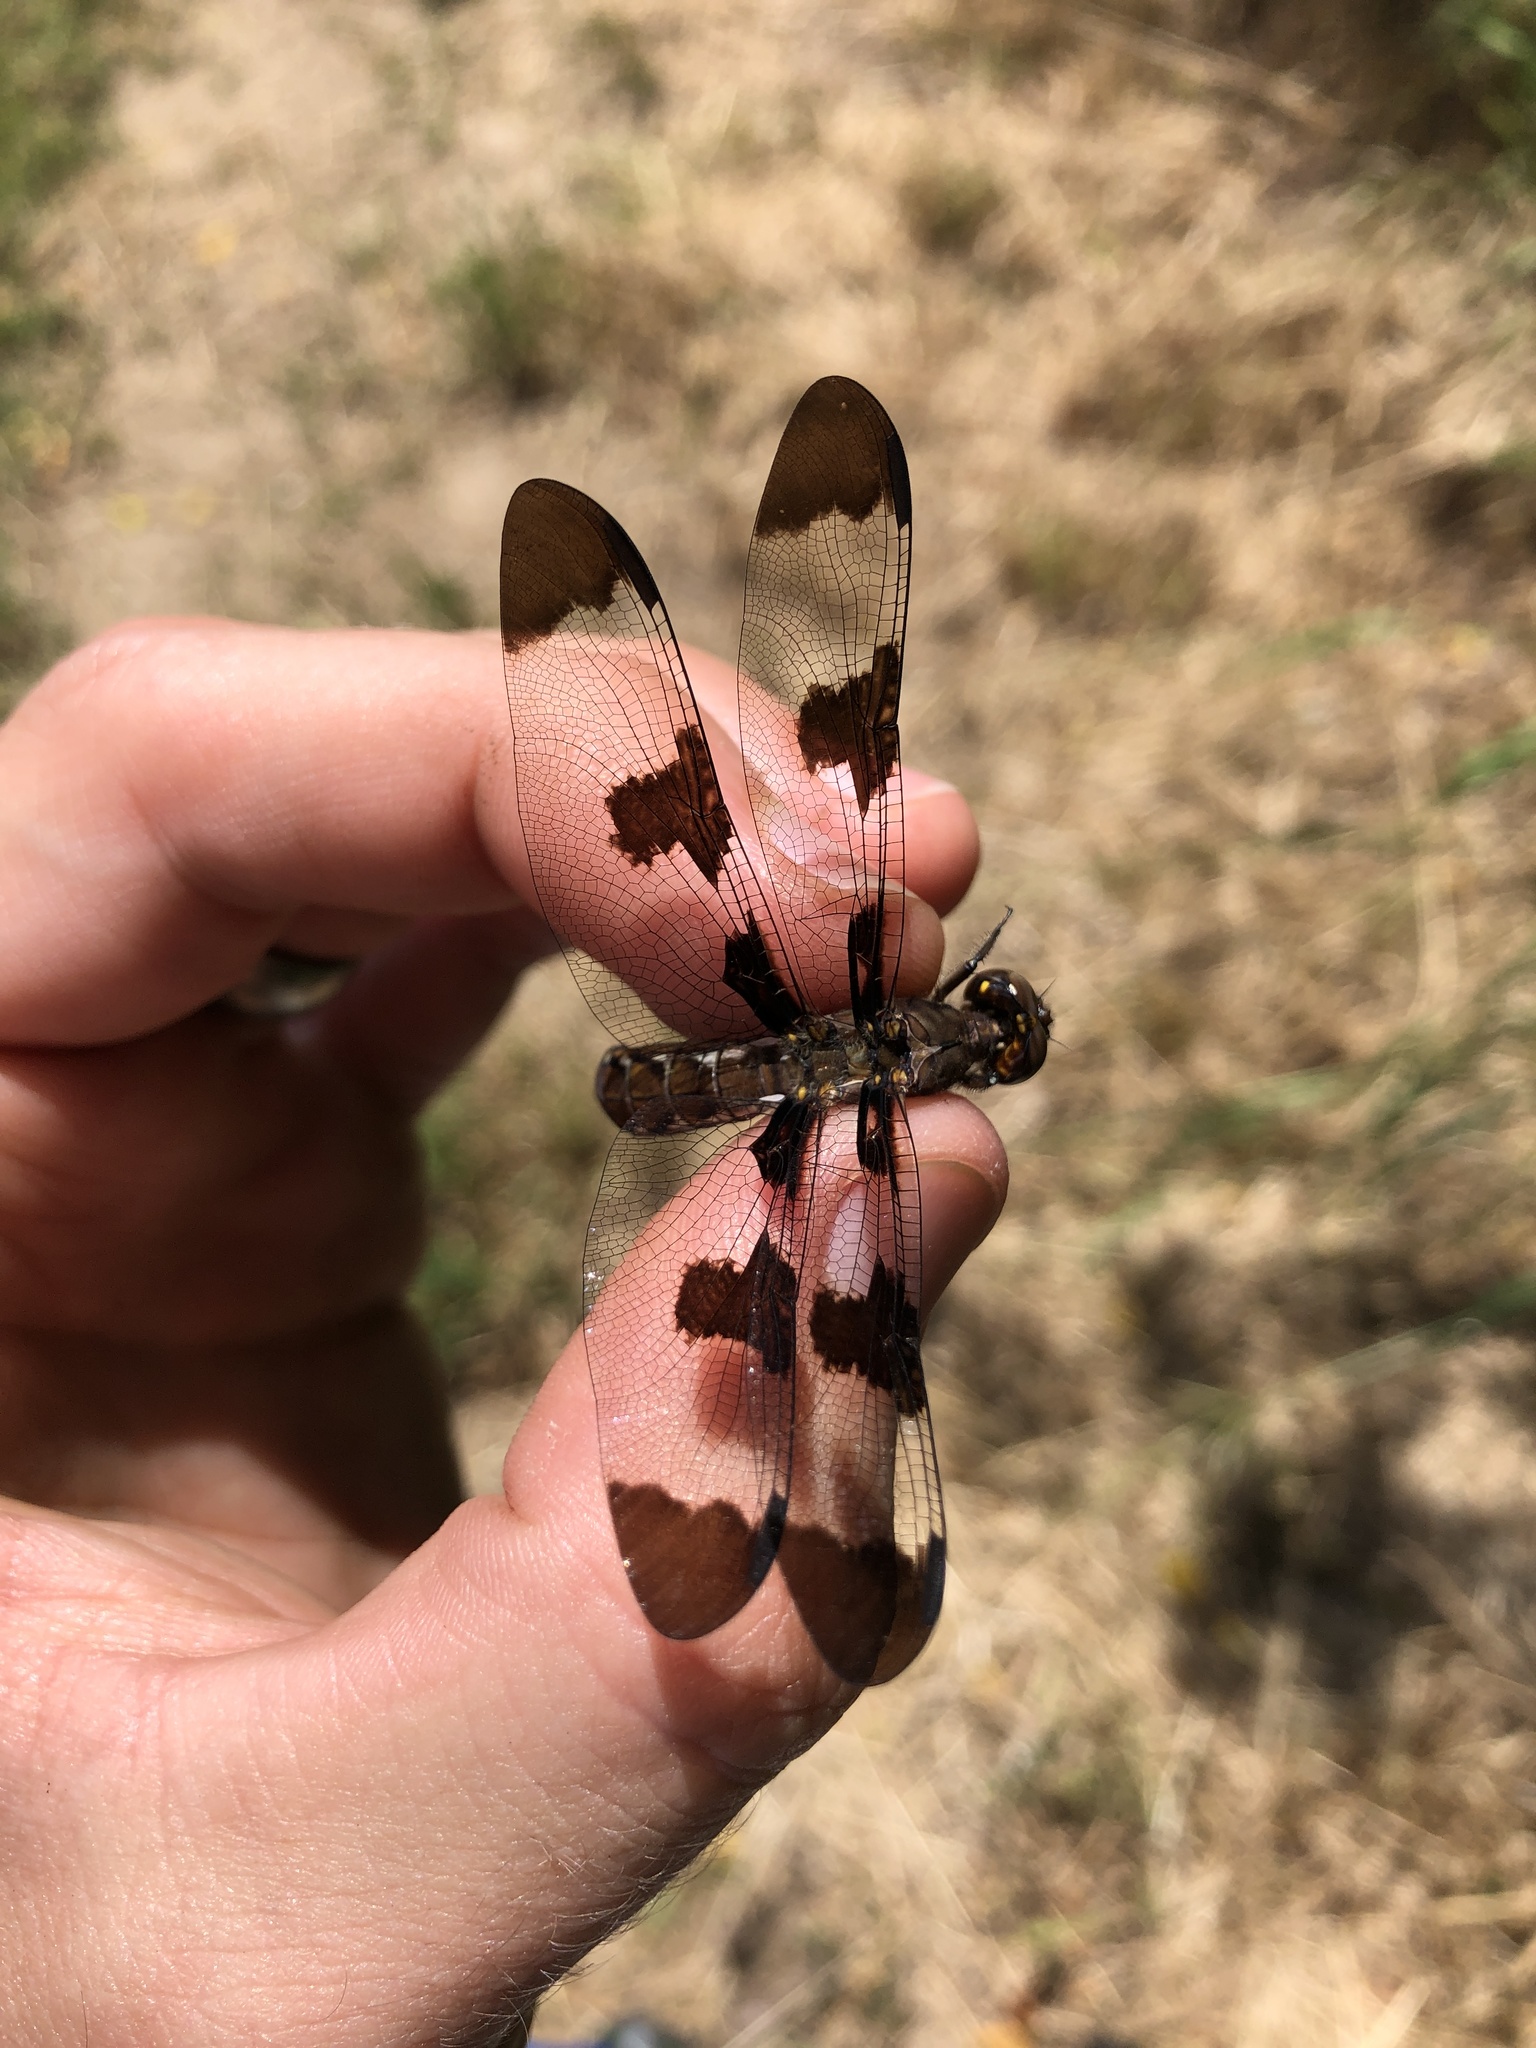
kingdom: Animalia
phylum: Arthropoda
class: Insecta
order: Odonata
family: Libellulidae
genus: Plathemis
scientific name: Plathemis lydia
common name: Common whitetail
